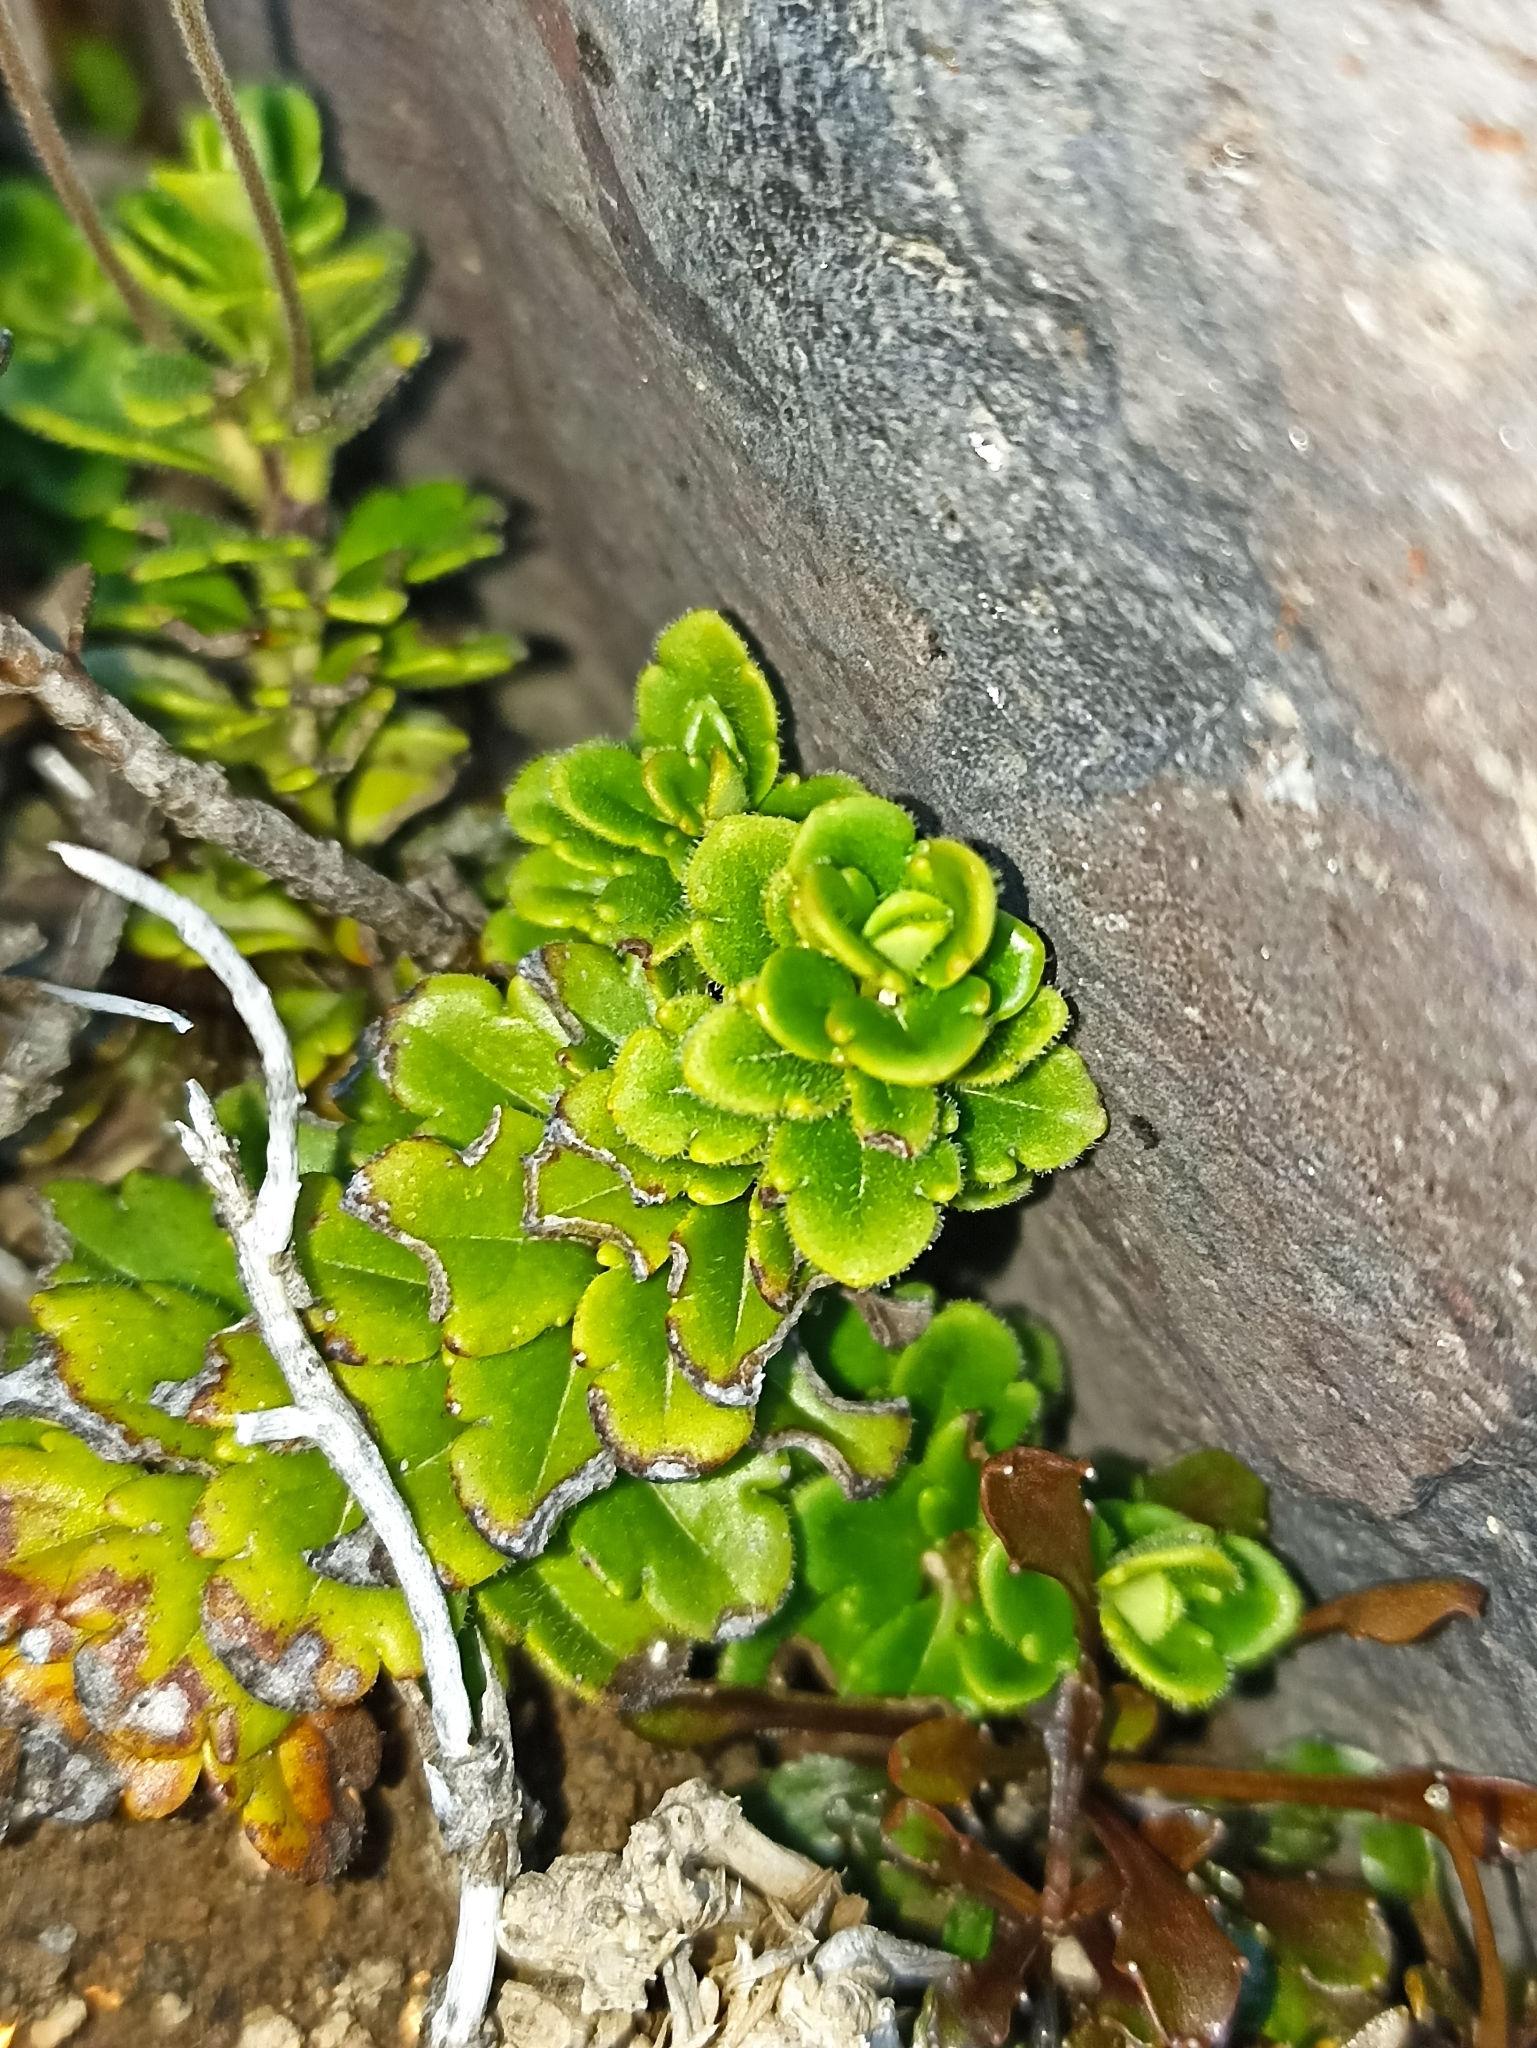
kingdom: Plantae
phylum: Tracheophyta
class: Magnoliopsida
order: Lamiales
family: Plantaginaceae
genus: Veronica
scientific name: Veronica hookeriana
